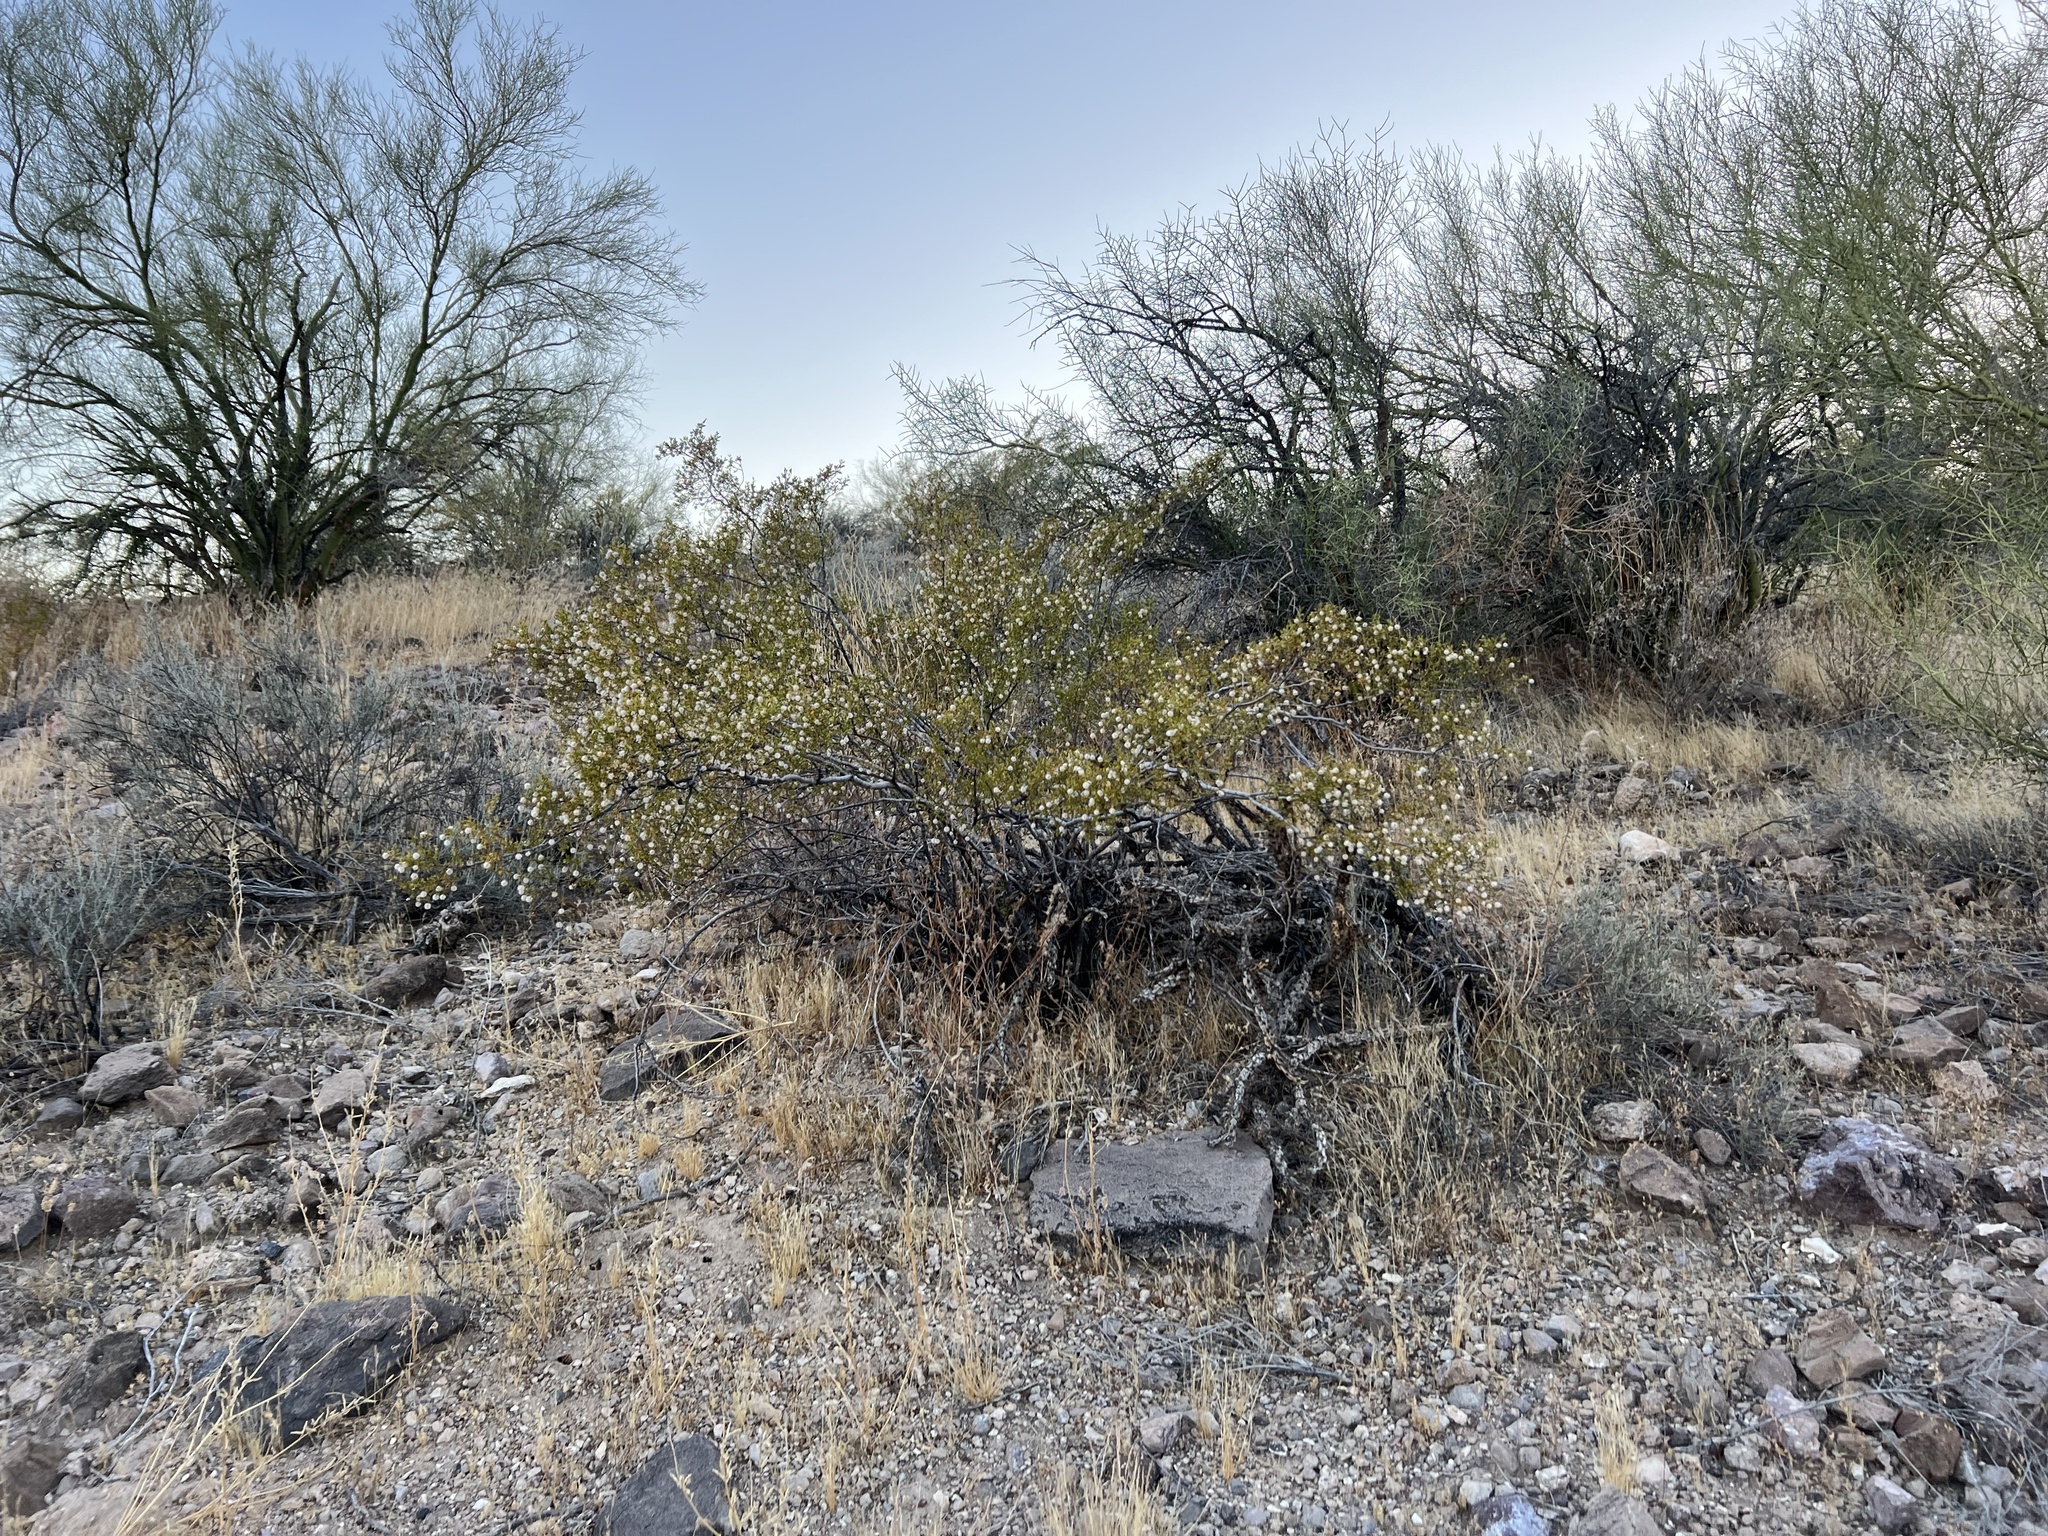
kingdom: Plantae
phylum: Tracheophyta
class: Magnoliopsida
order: Zygophyllales
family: Zygophyllaceae
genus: Larrea
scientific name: Larrea tridentata
